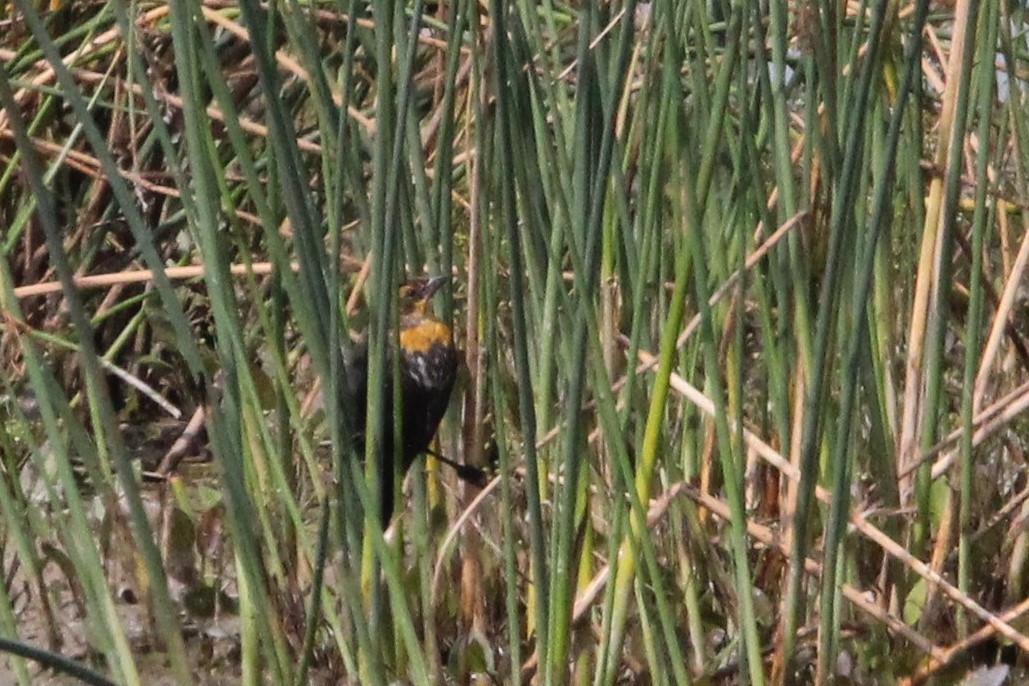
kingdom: Animalia
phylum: Chordata
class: Aves
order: Passeriformes
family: Icteridae
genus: Xanthocephalus
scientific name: Xanthocephalus xanthocephalus
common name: Yellow-headed blackbird
